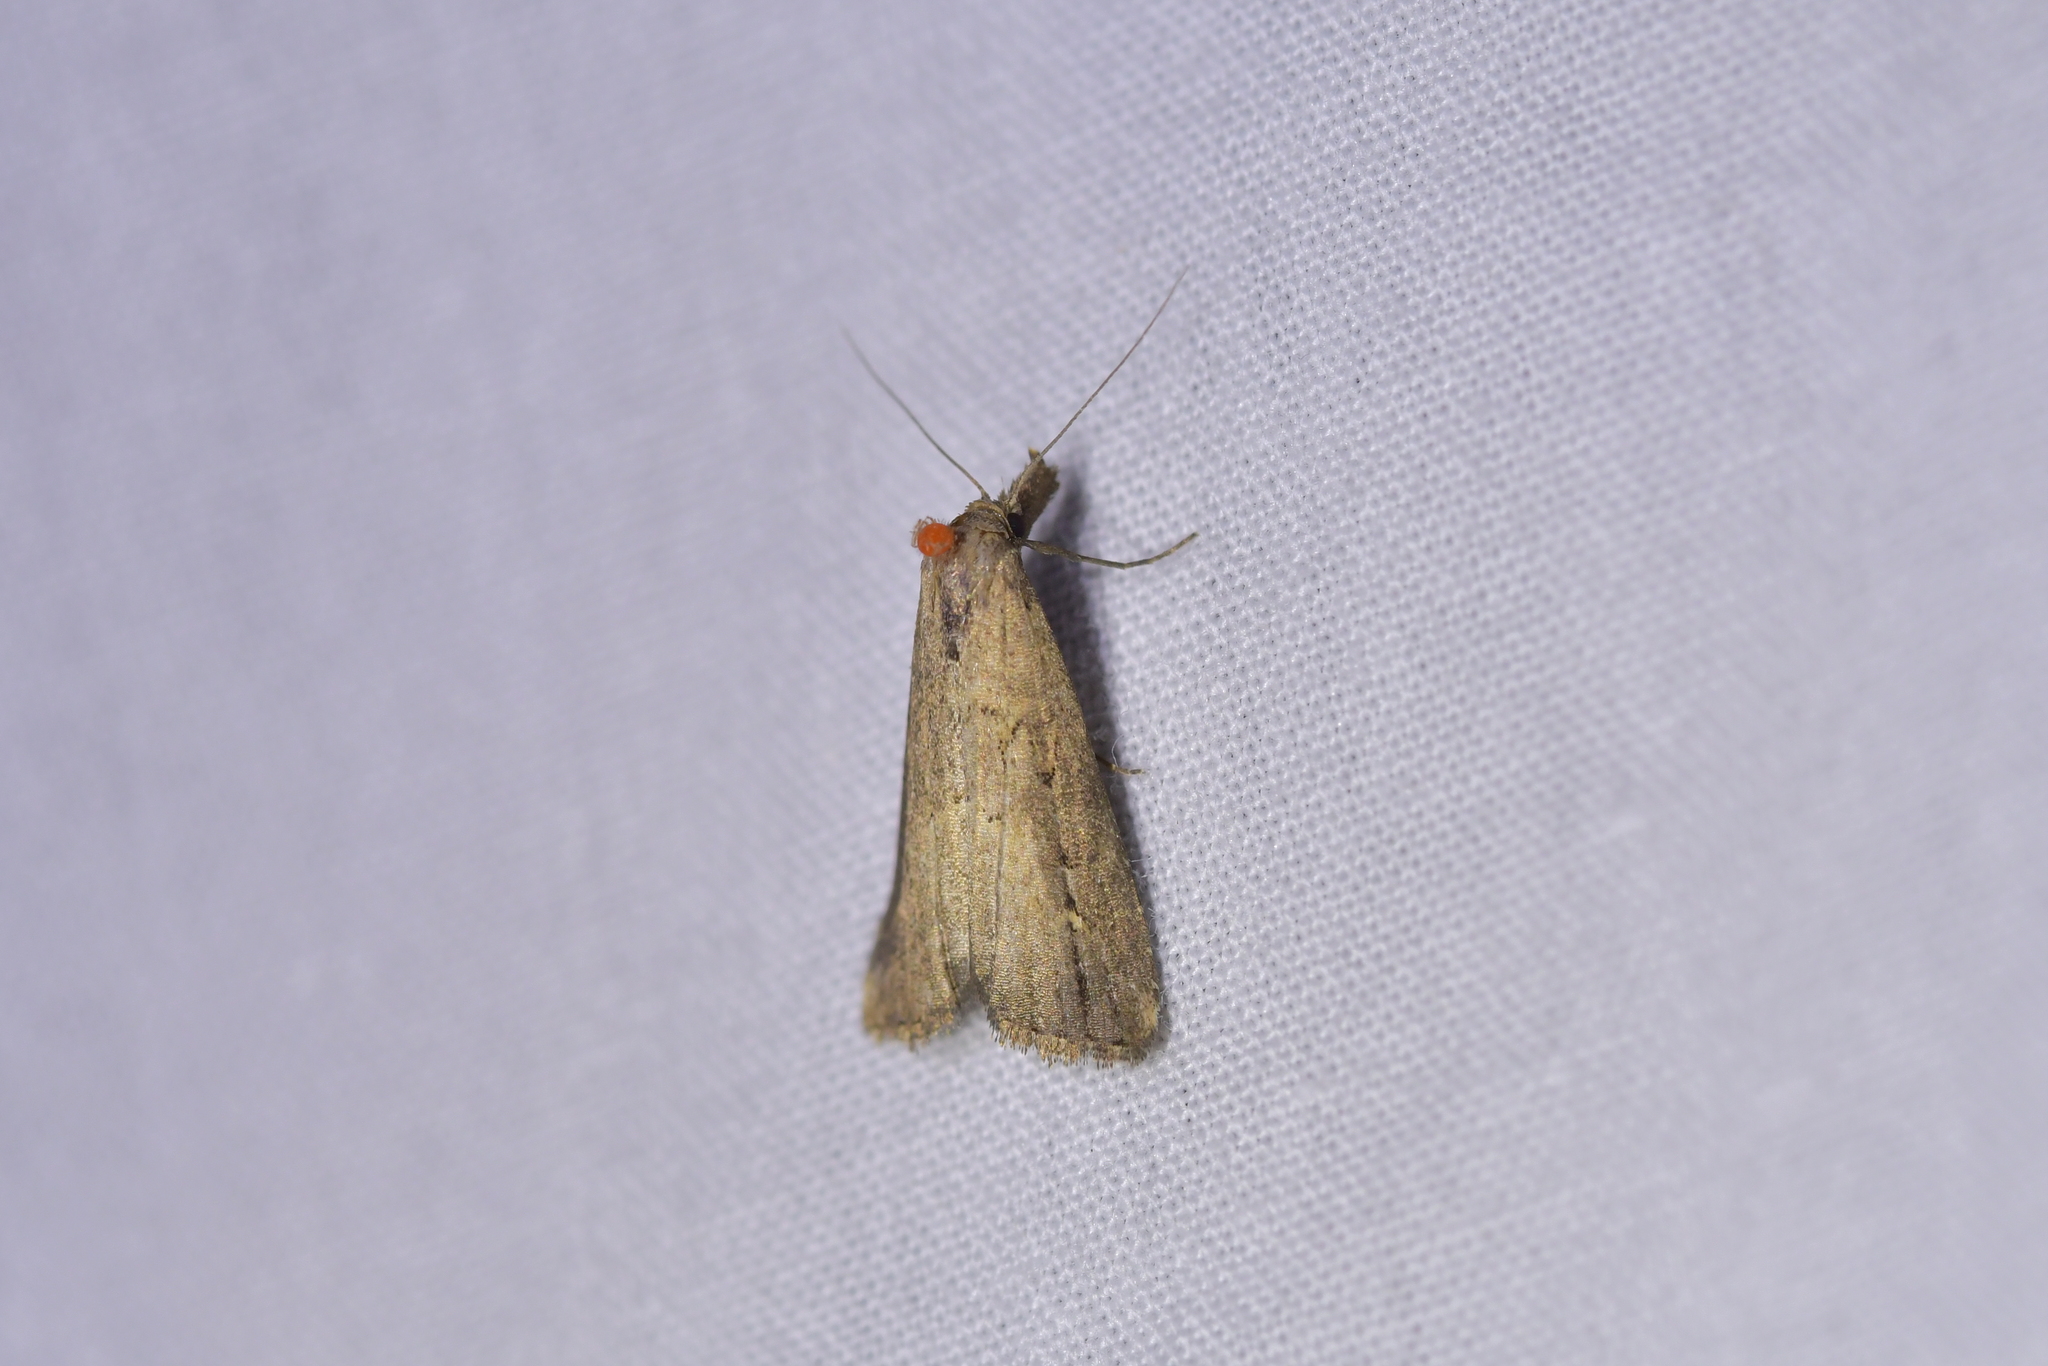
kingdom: Animalia
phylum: Arthropoda
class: Insecta
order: Lepidoptera
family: Erebidae
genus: Schrankia
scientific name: Schrankia costaestrigalis
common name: Pinion-streaked snout
